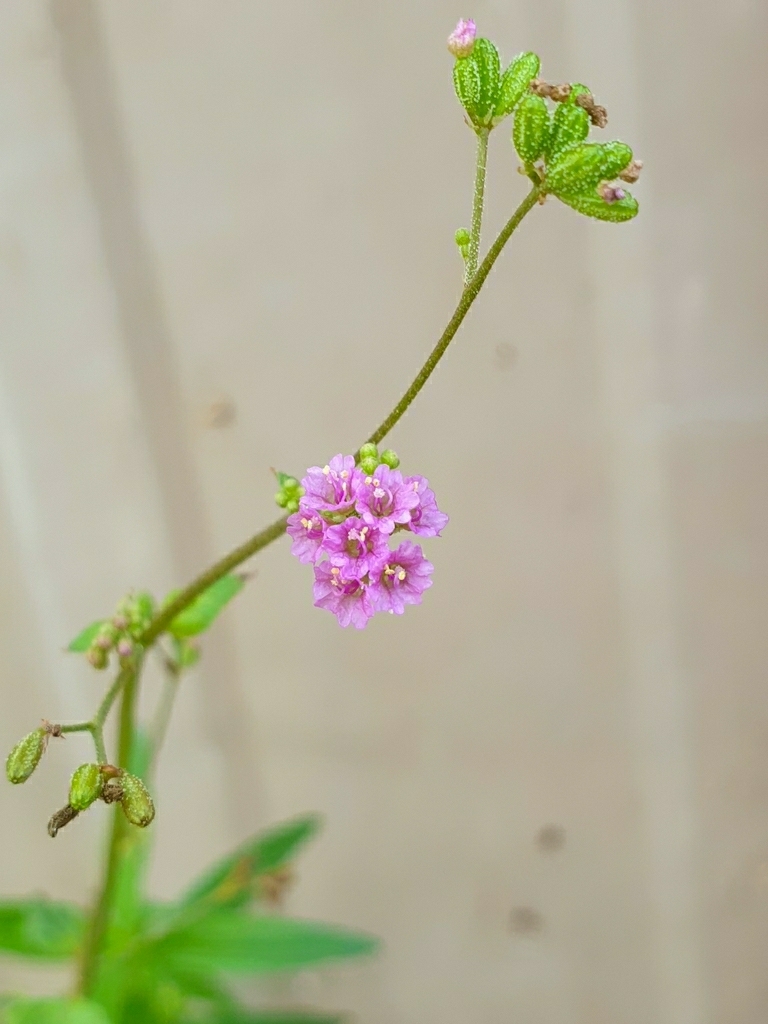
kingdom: Plantae
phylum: Tracheophyta
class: Magnoliopsida
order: Caryophyllales
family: Nyctaginaceae
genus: Boerhavia
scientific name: Boerhavia diffusa
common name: Red spiderling
